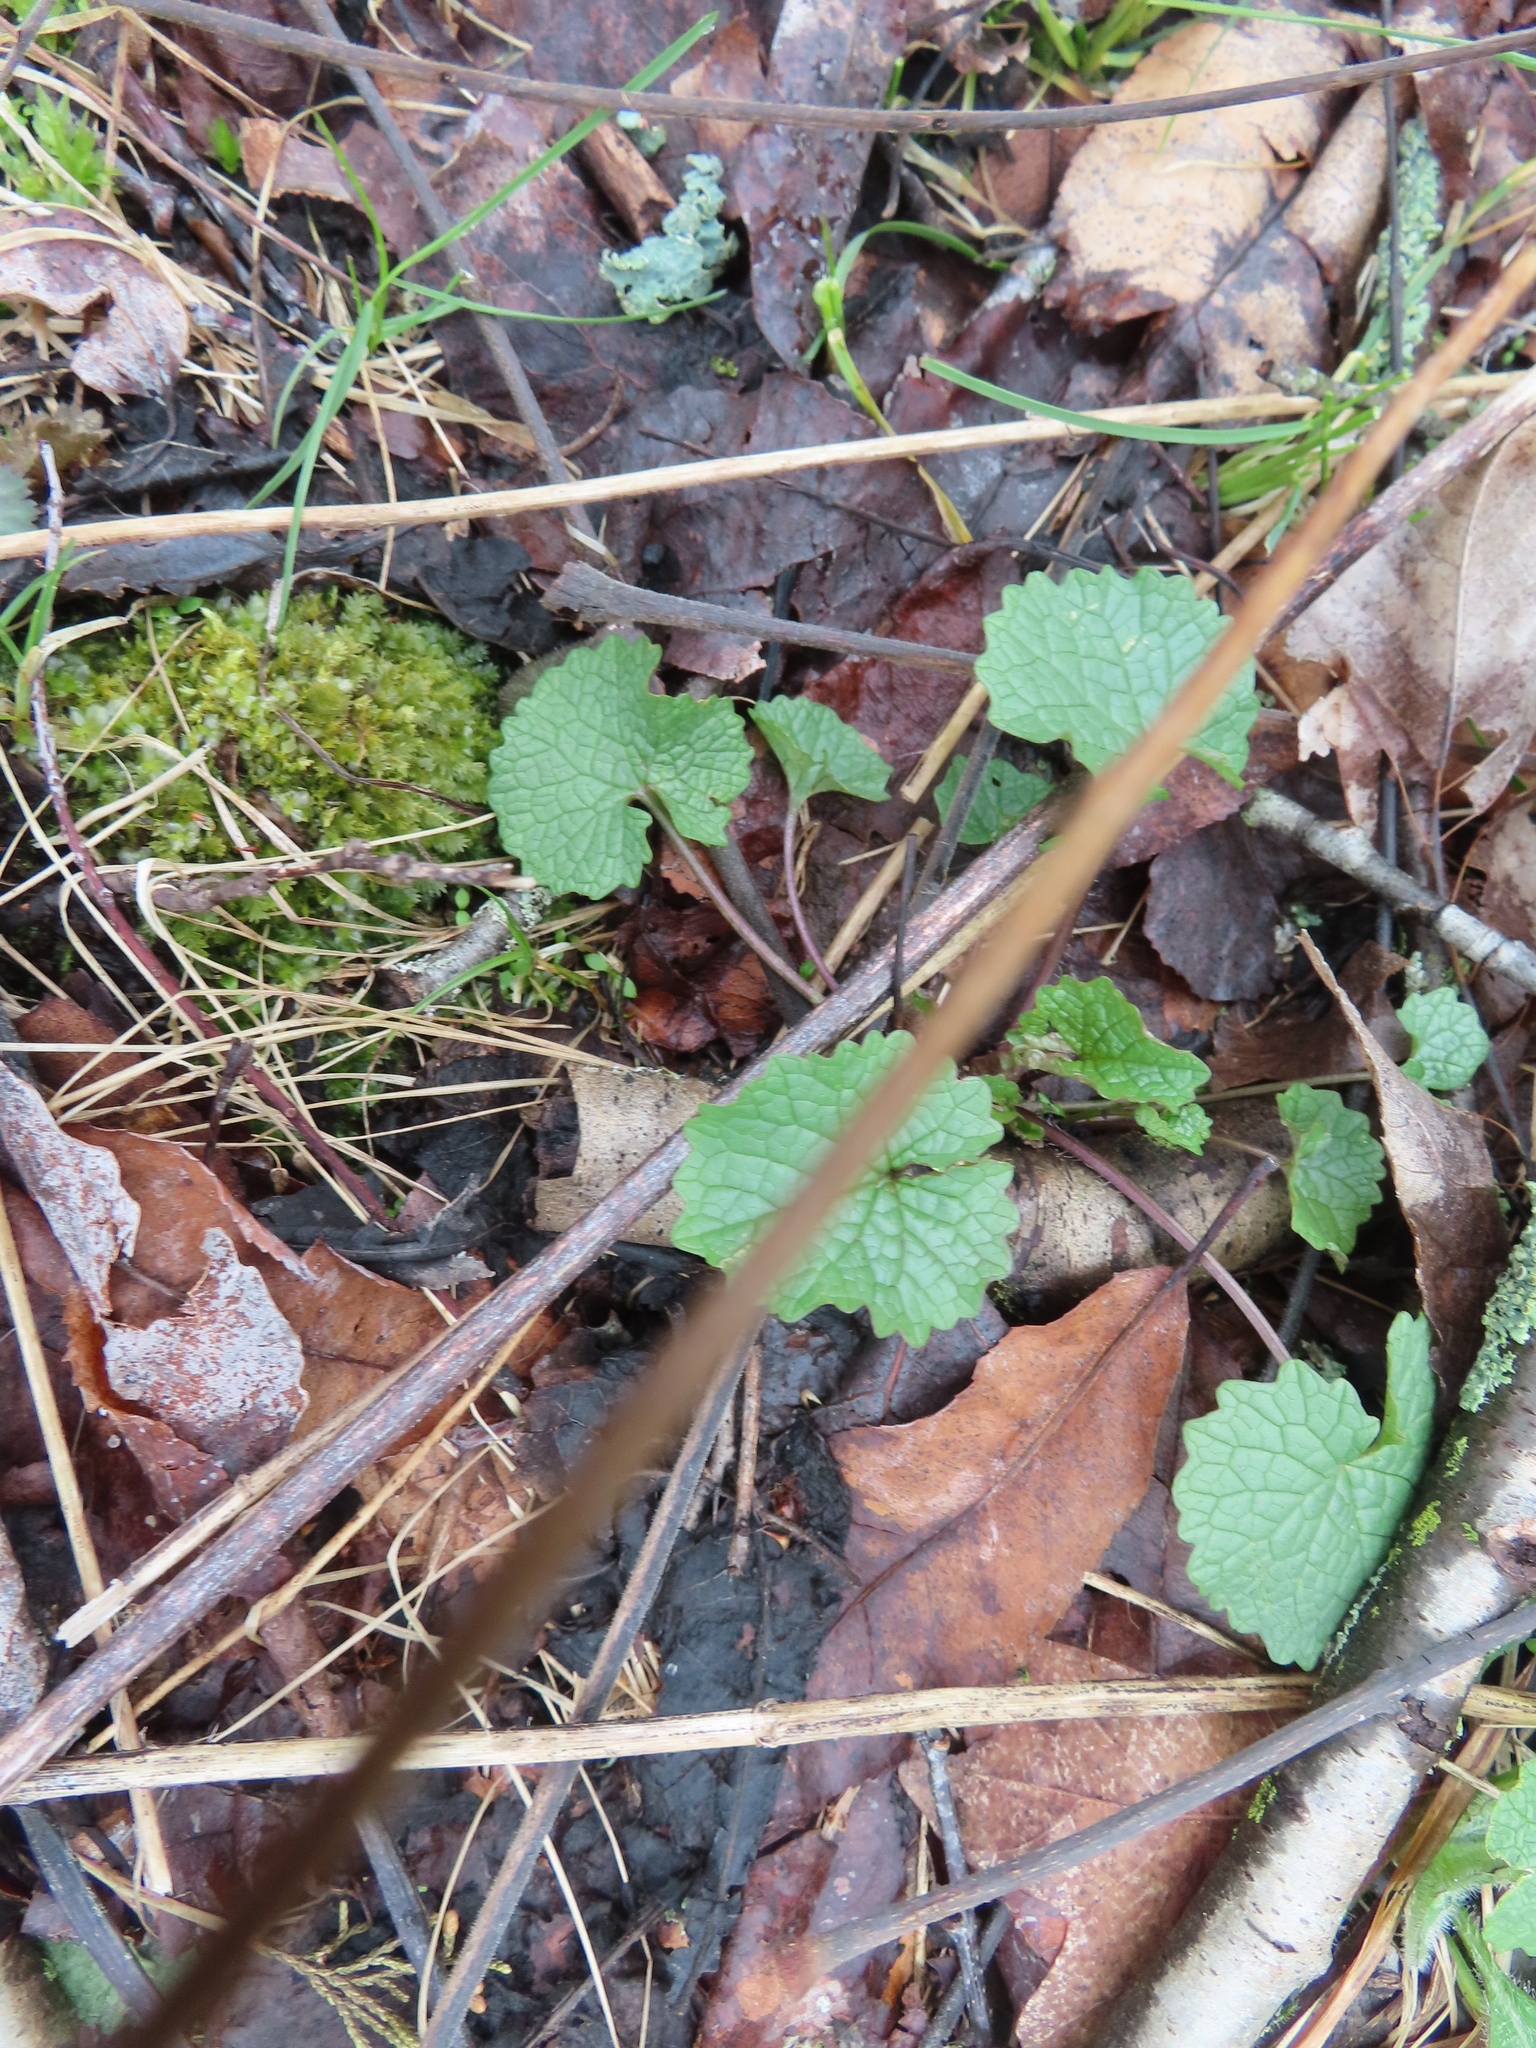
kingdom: Plantae
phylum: Tracheophyta
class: Magnoliopsida
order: Brassicales
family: Brassicaceae
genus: Alliaria
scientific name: Alliaria petiolata
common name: Garlic mustard
